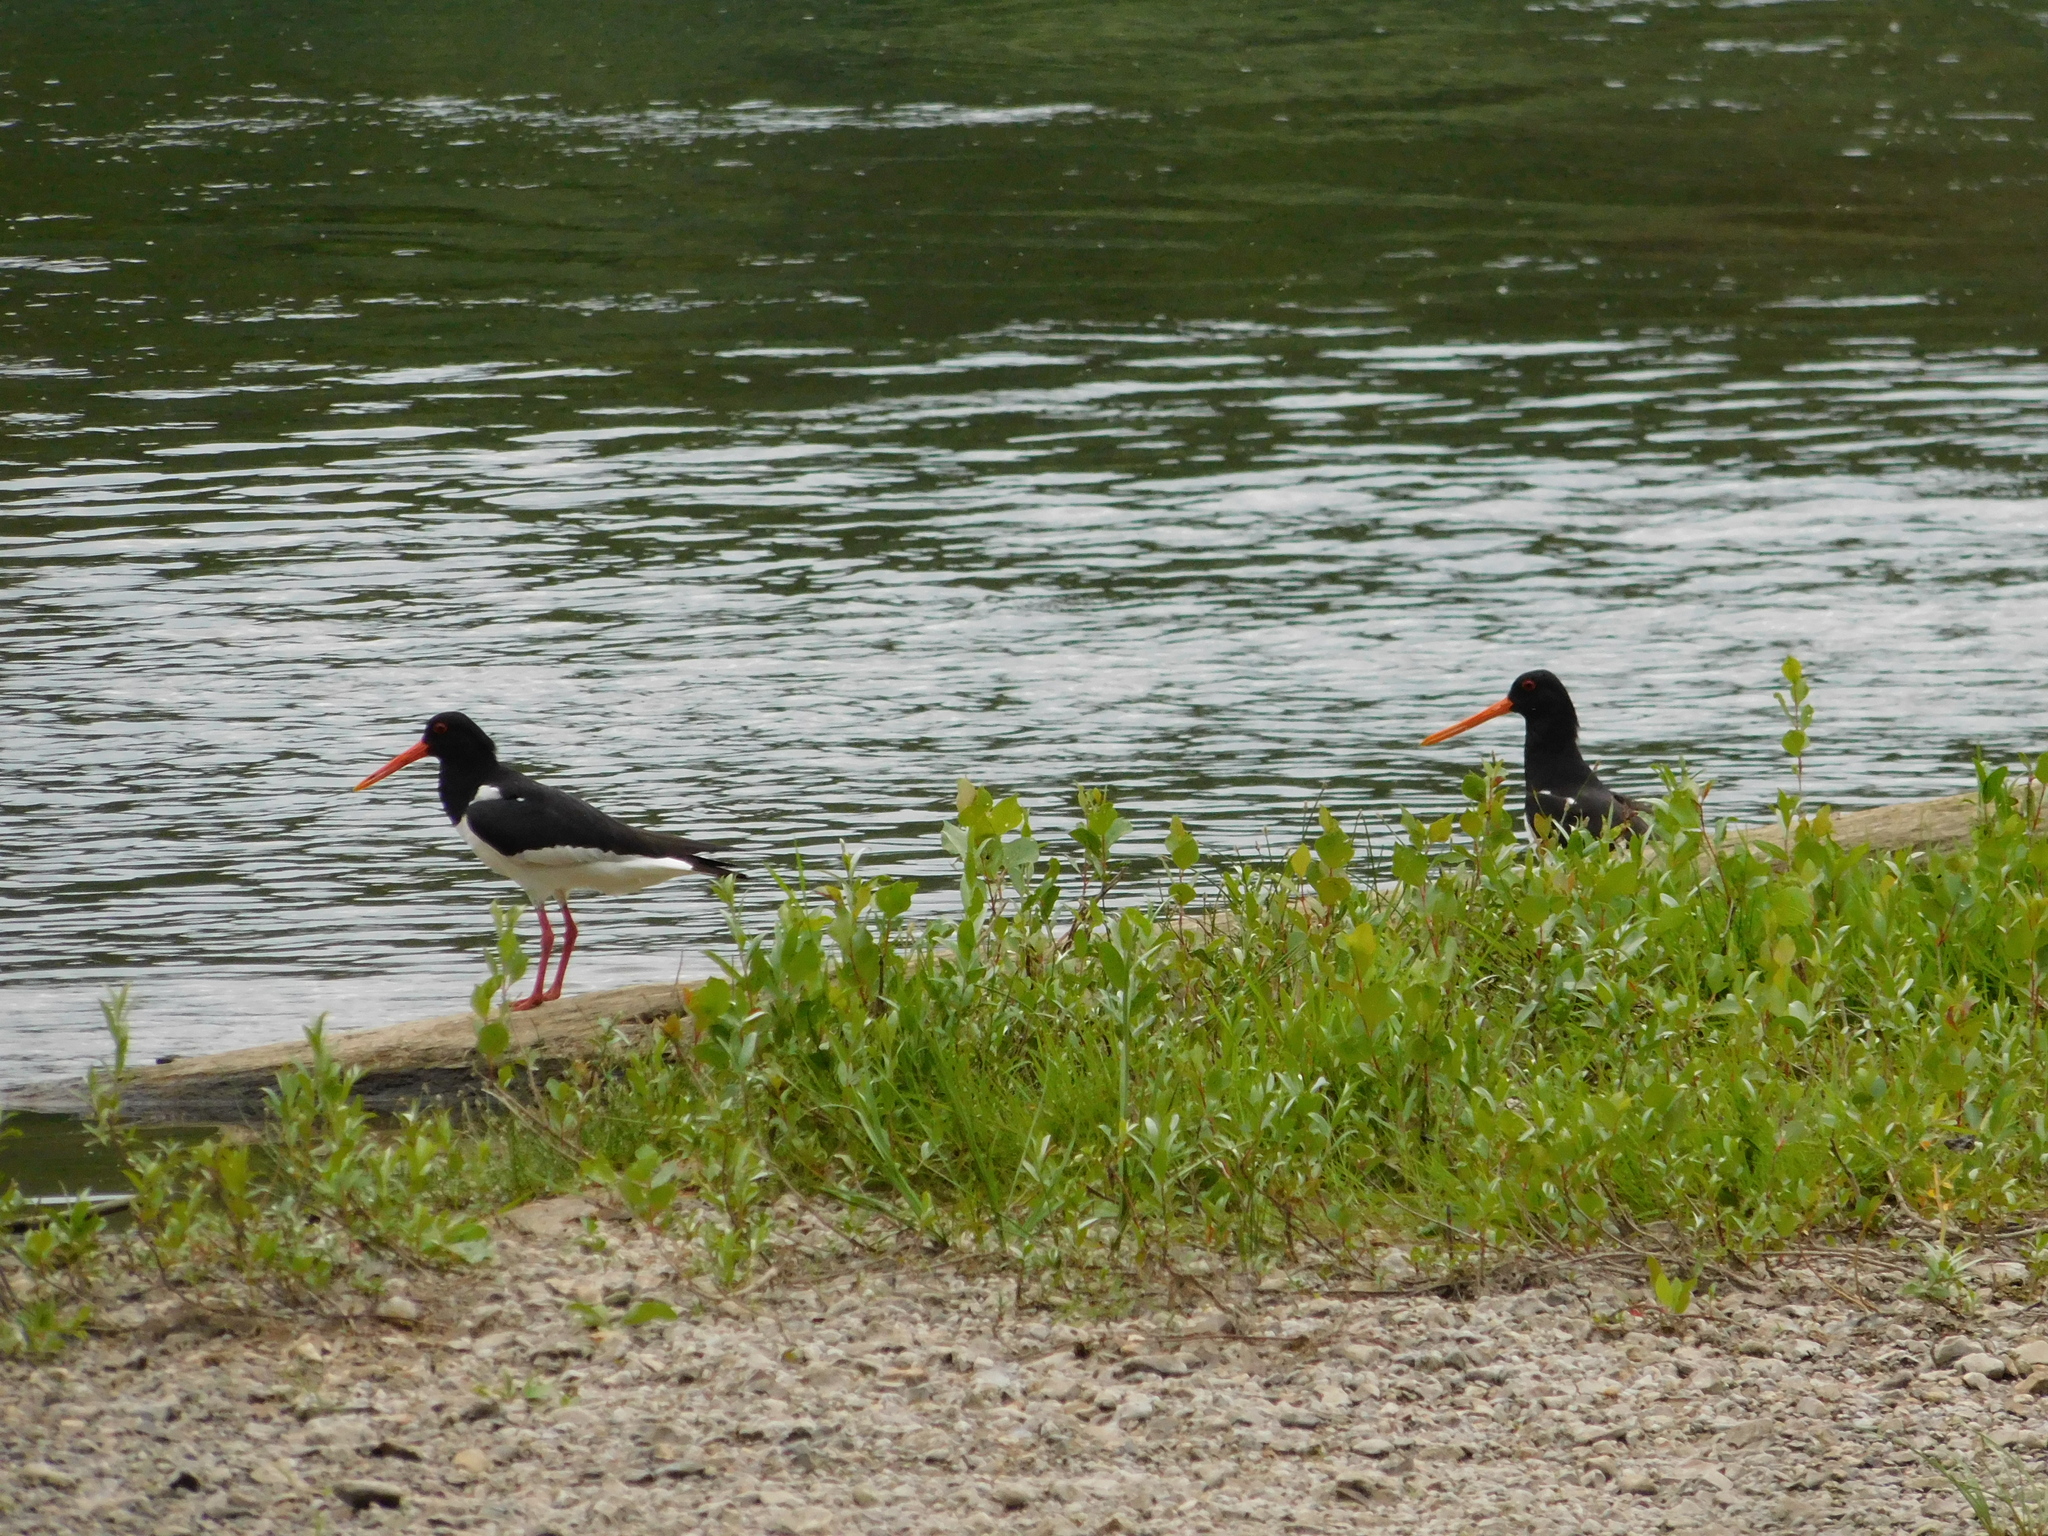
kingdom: Animalia
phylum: Chordata
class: Aves
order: Charadriiformes
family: Haematopodidae
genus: Haematopus
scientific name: Haematopus ostralegus
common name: Eurasian oystercatcher
